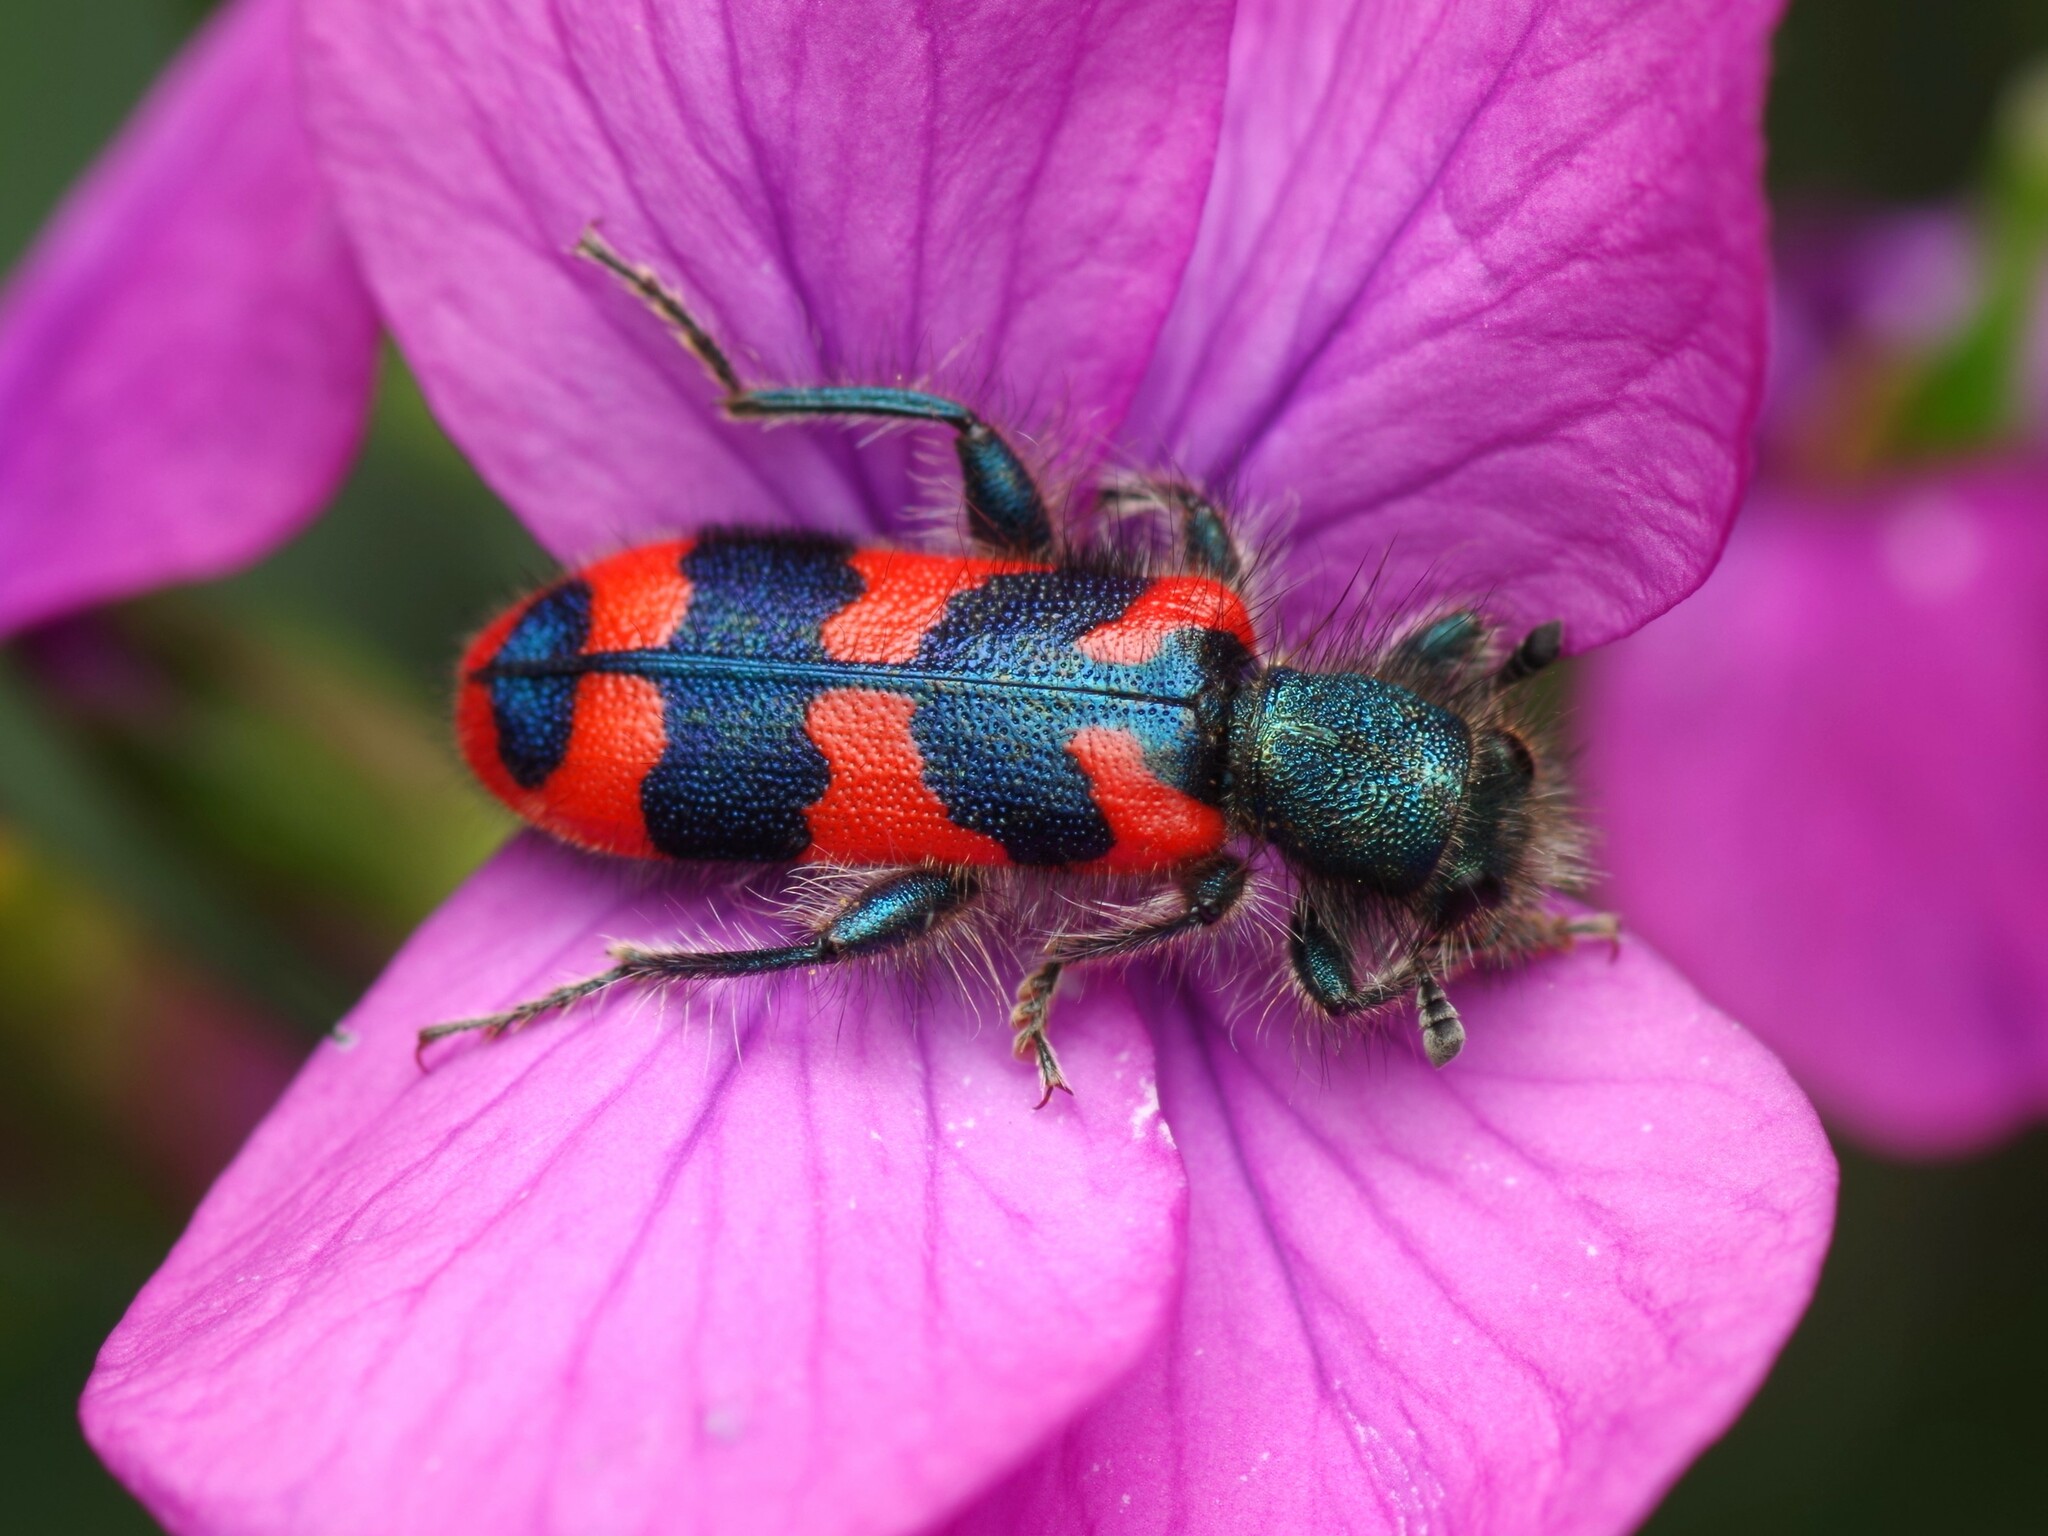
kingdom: Animalia
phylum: Arthropoda
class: Insecta
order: Coleoptera
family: Cleridae
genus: Trichodes
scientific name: Trichodes alvearius
